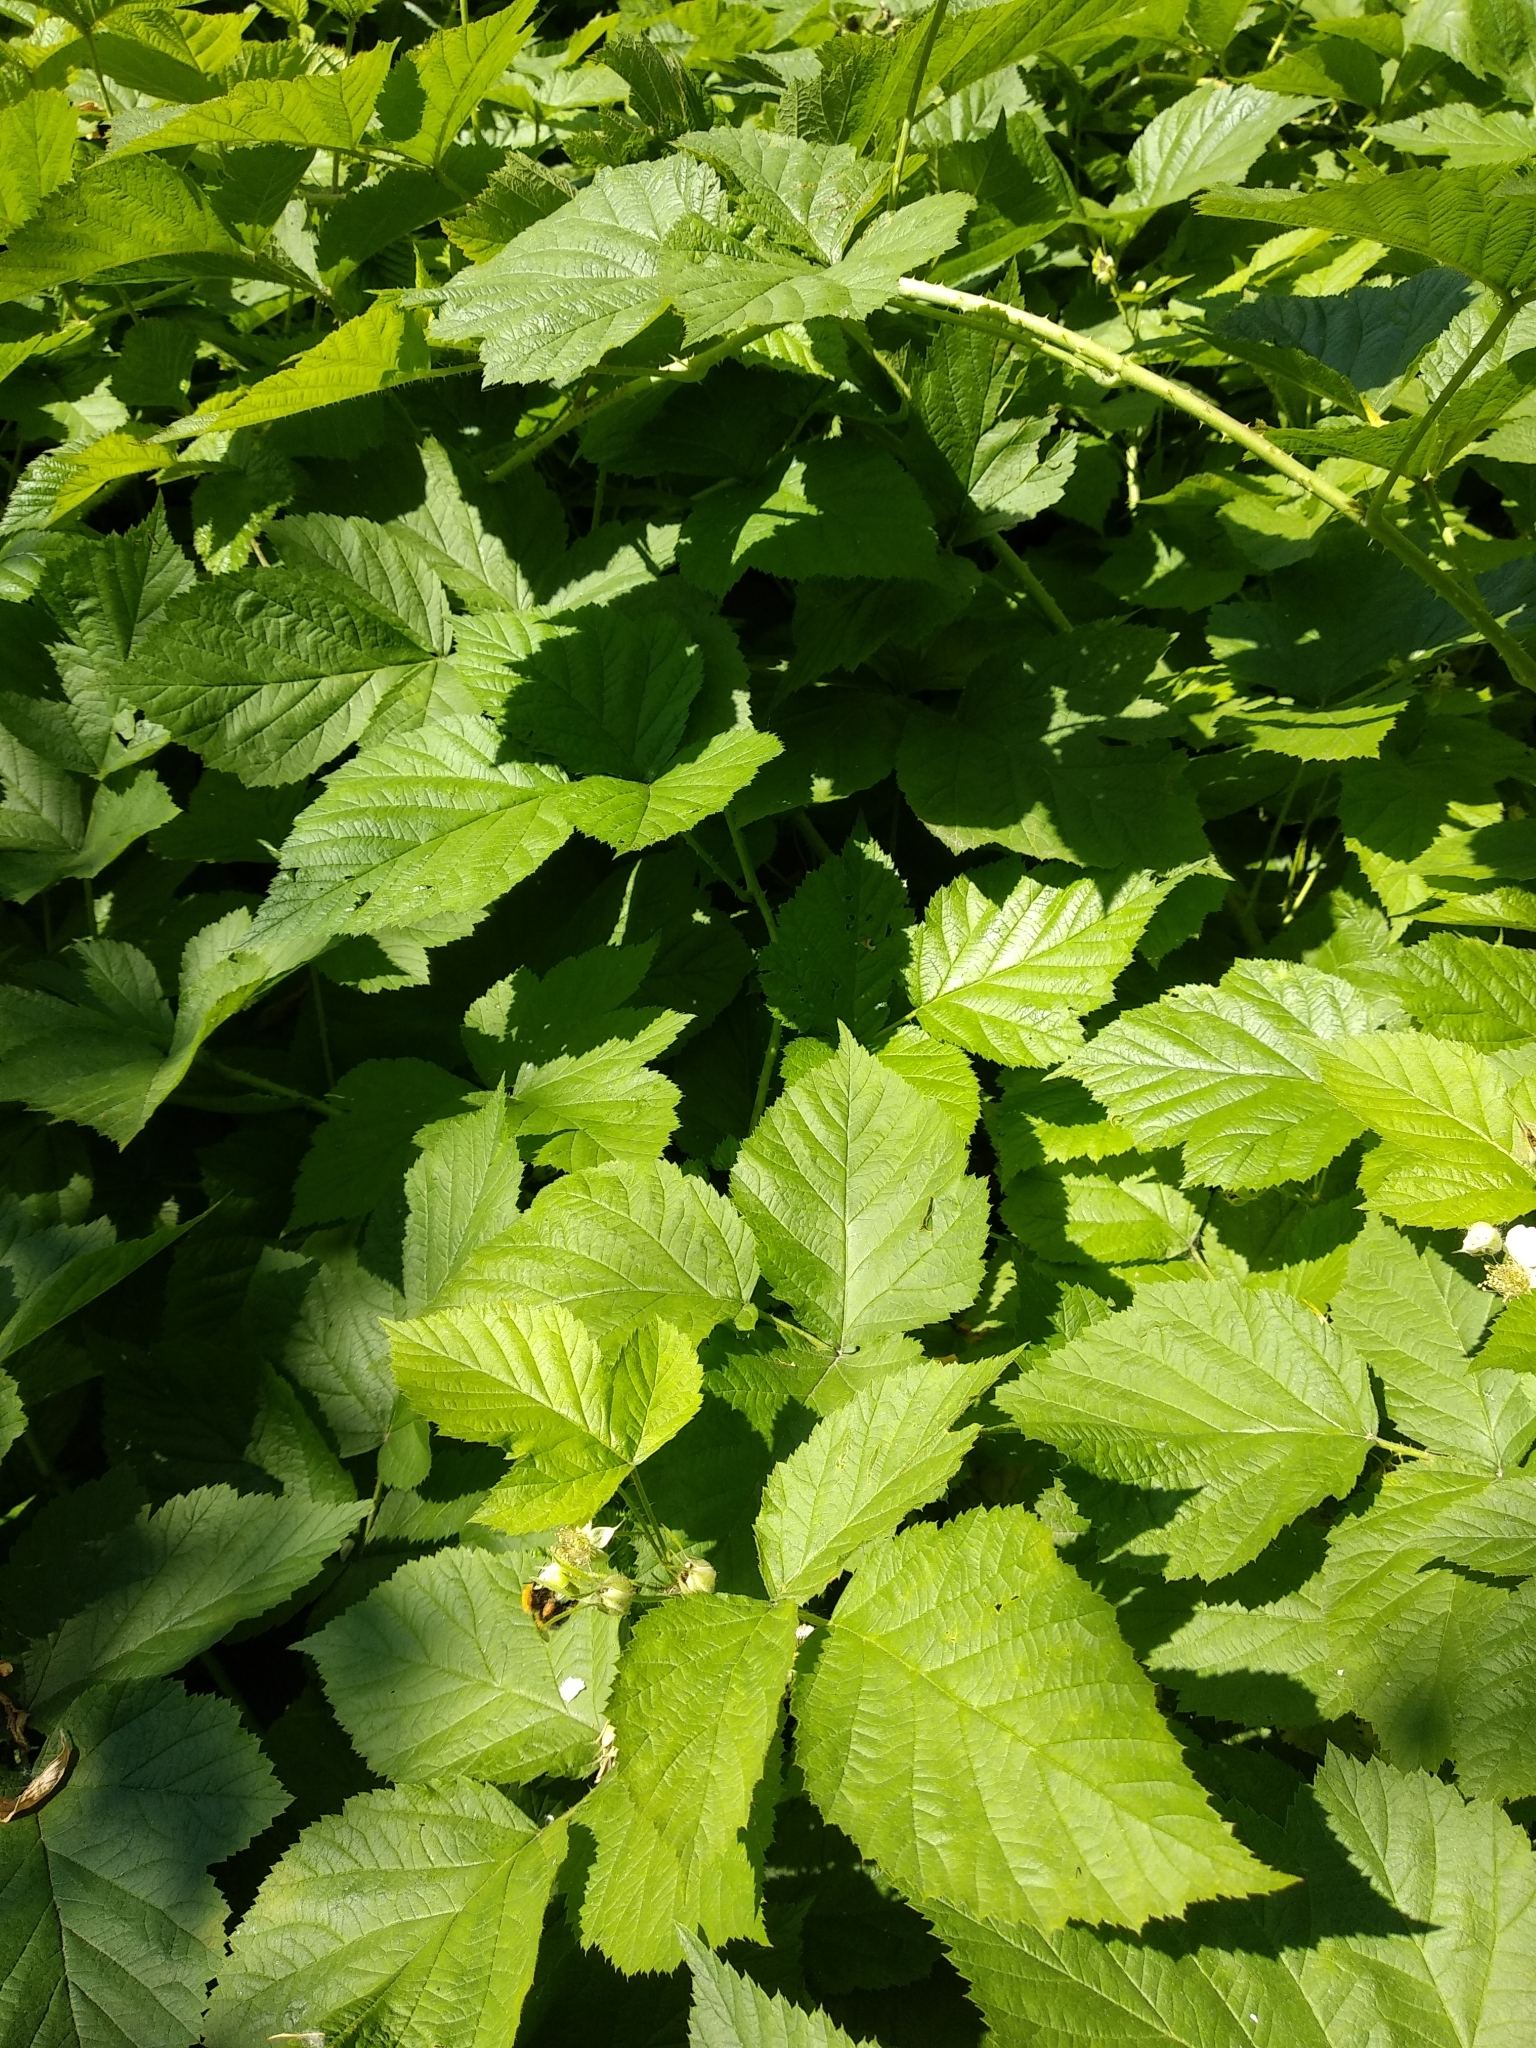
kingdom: Plantae
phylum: Tracheophyta
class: Magnoliopsida
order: Rosales
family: Rosaceae
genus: Rubus
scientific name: Rubus caesius
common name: Dewberry
